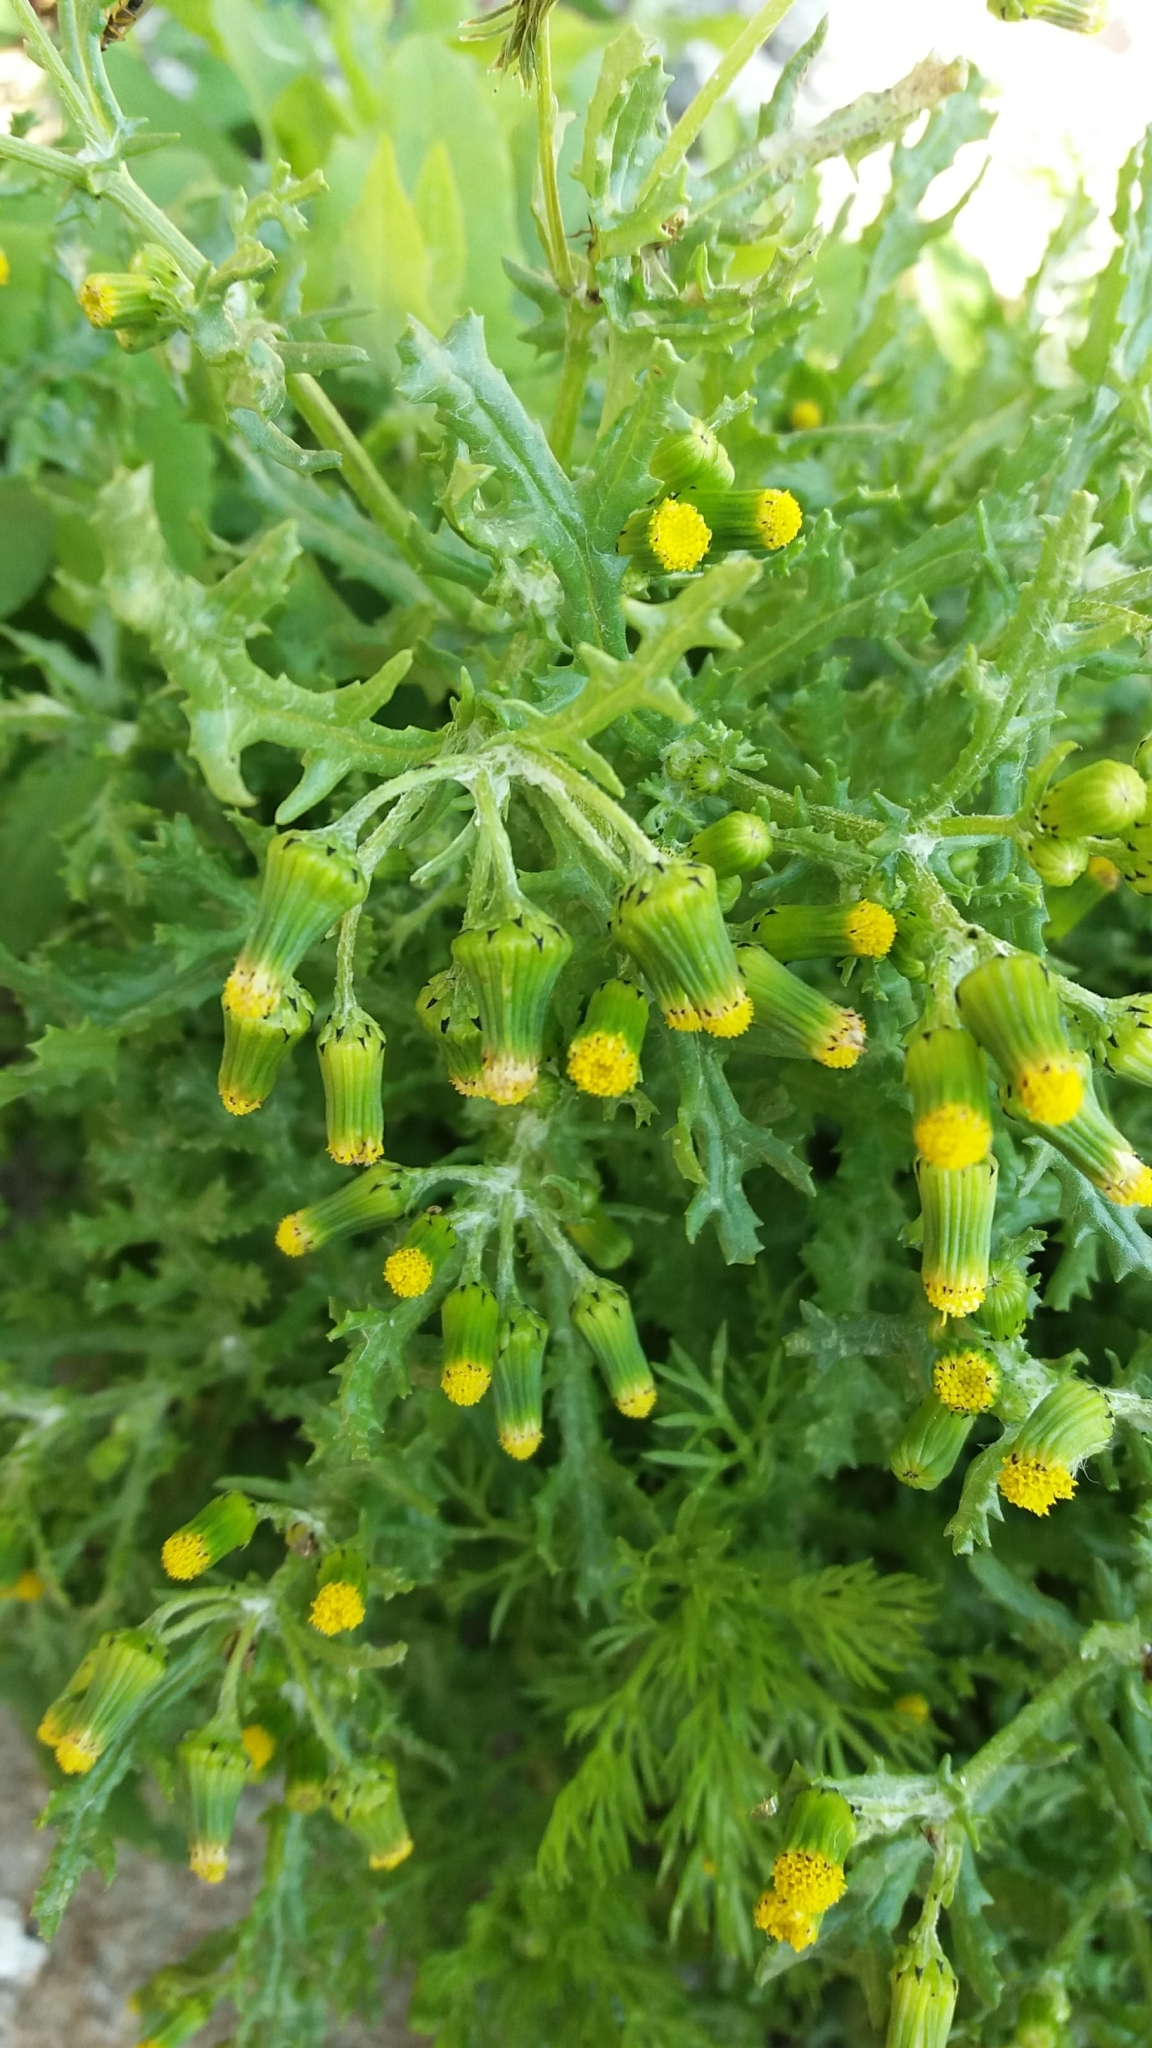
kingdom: Plantae
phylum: Tracheophyta
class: Magnoliopsida
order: Asterales
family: Asteraceae
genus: Senecio
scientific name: Senecio vulgaris
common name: Old-man-in-the-spring
